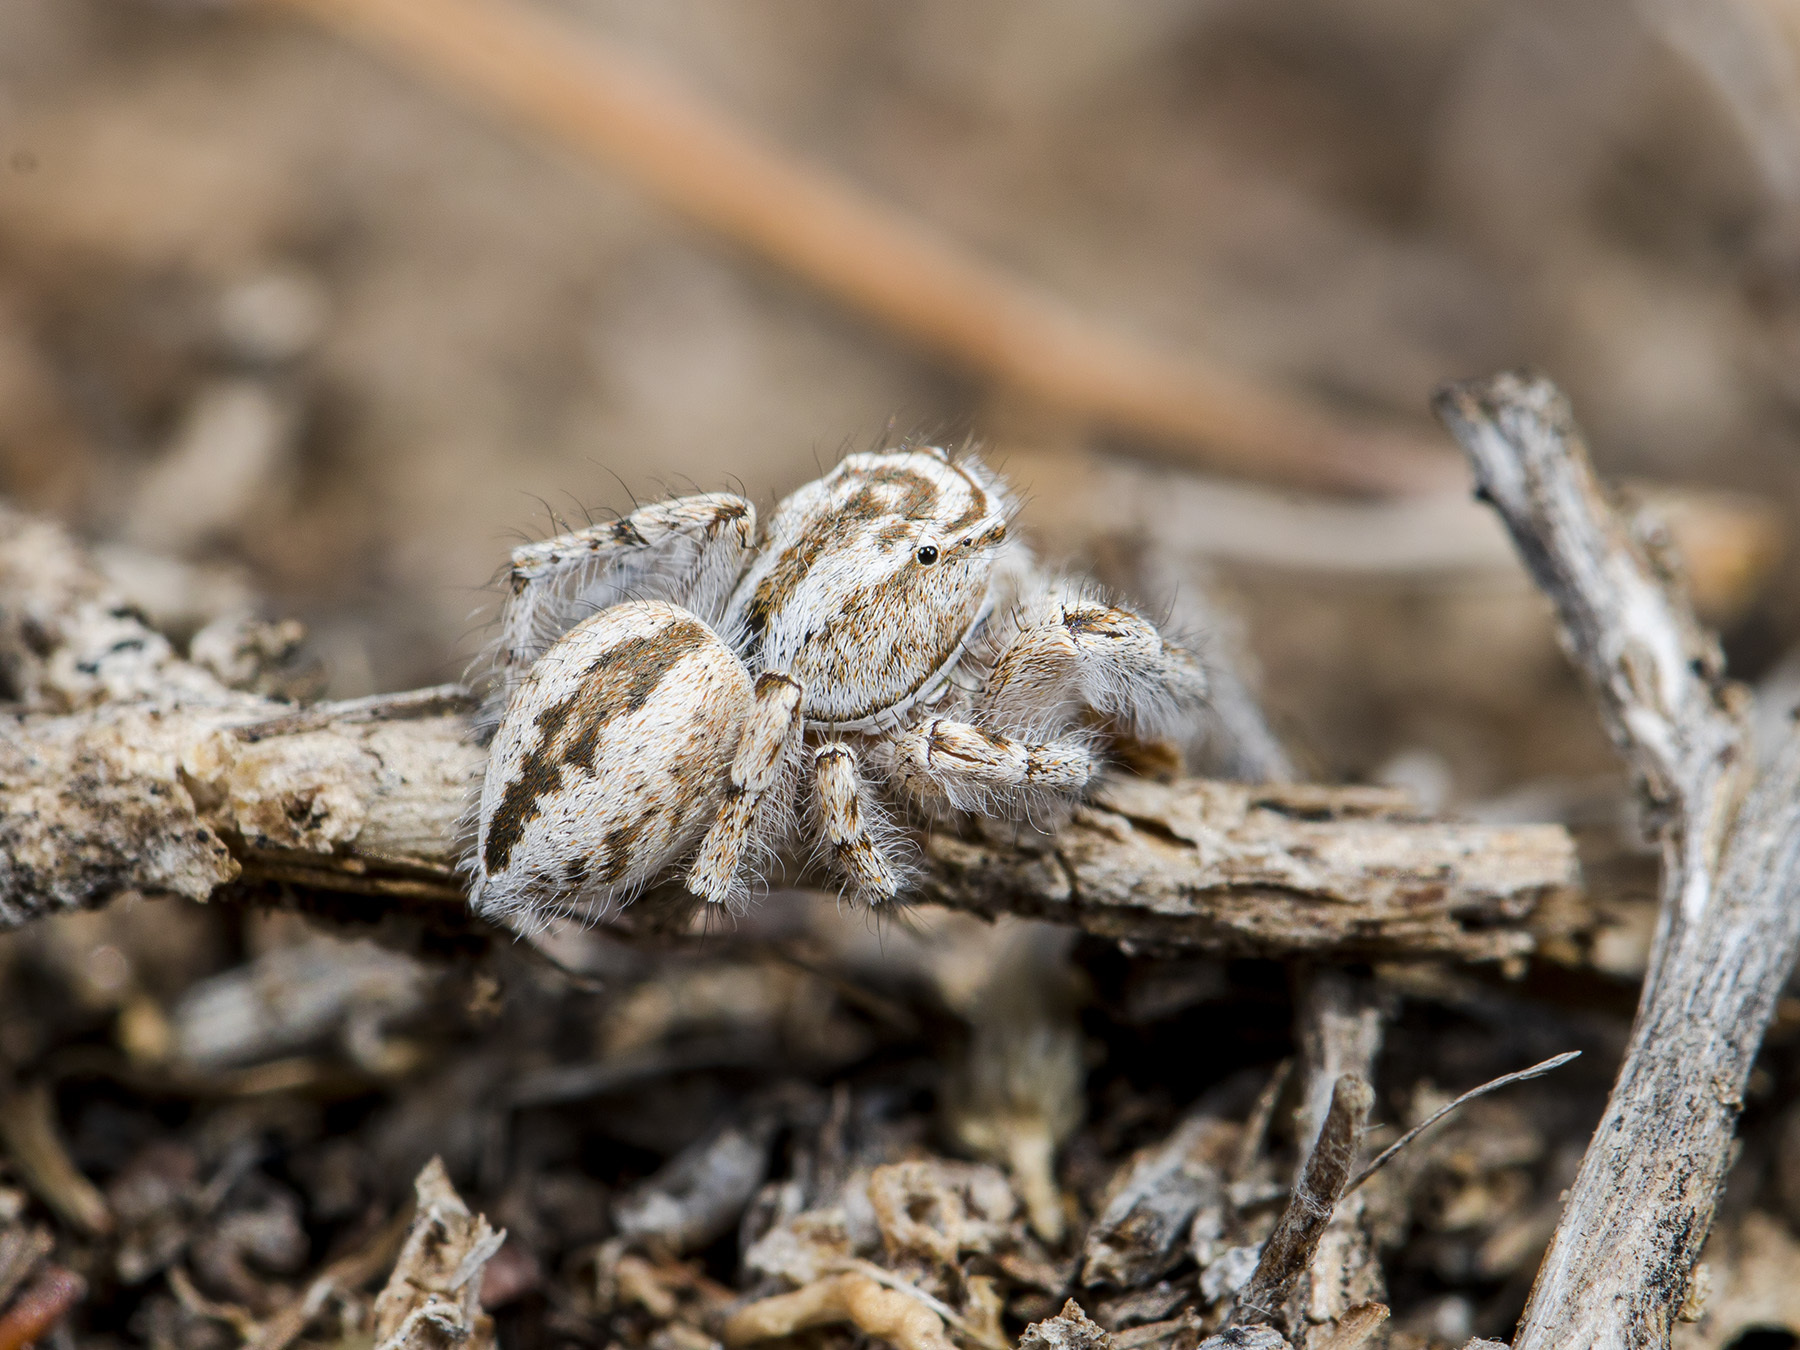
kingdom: Animalia
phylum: Arthropoda
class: Arachnida
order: Araneae
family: Salticidae
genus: Pseudomogrus
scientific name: Pseudomogrus zhilgaensis
